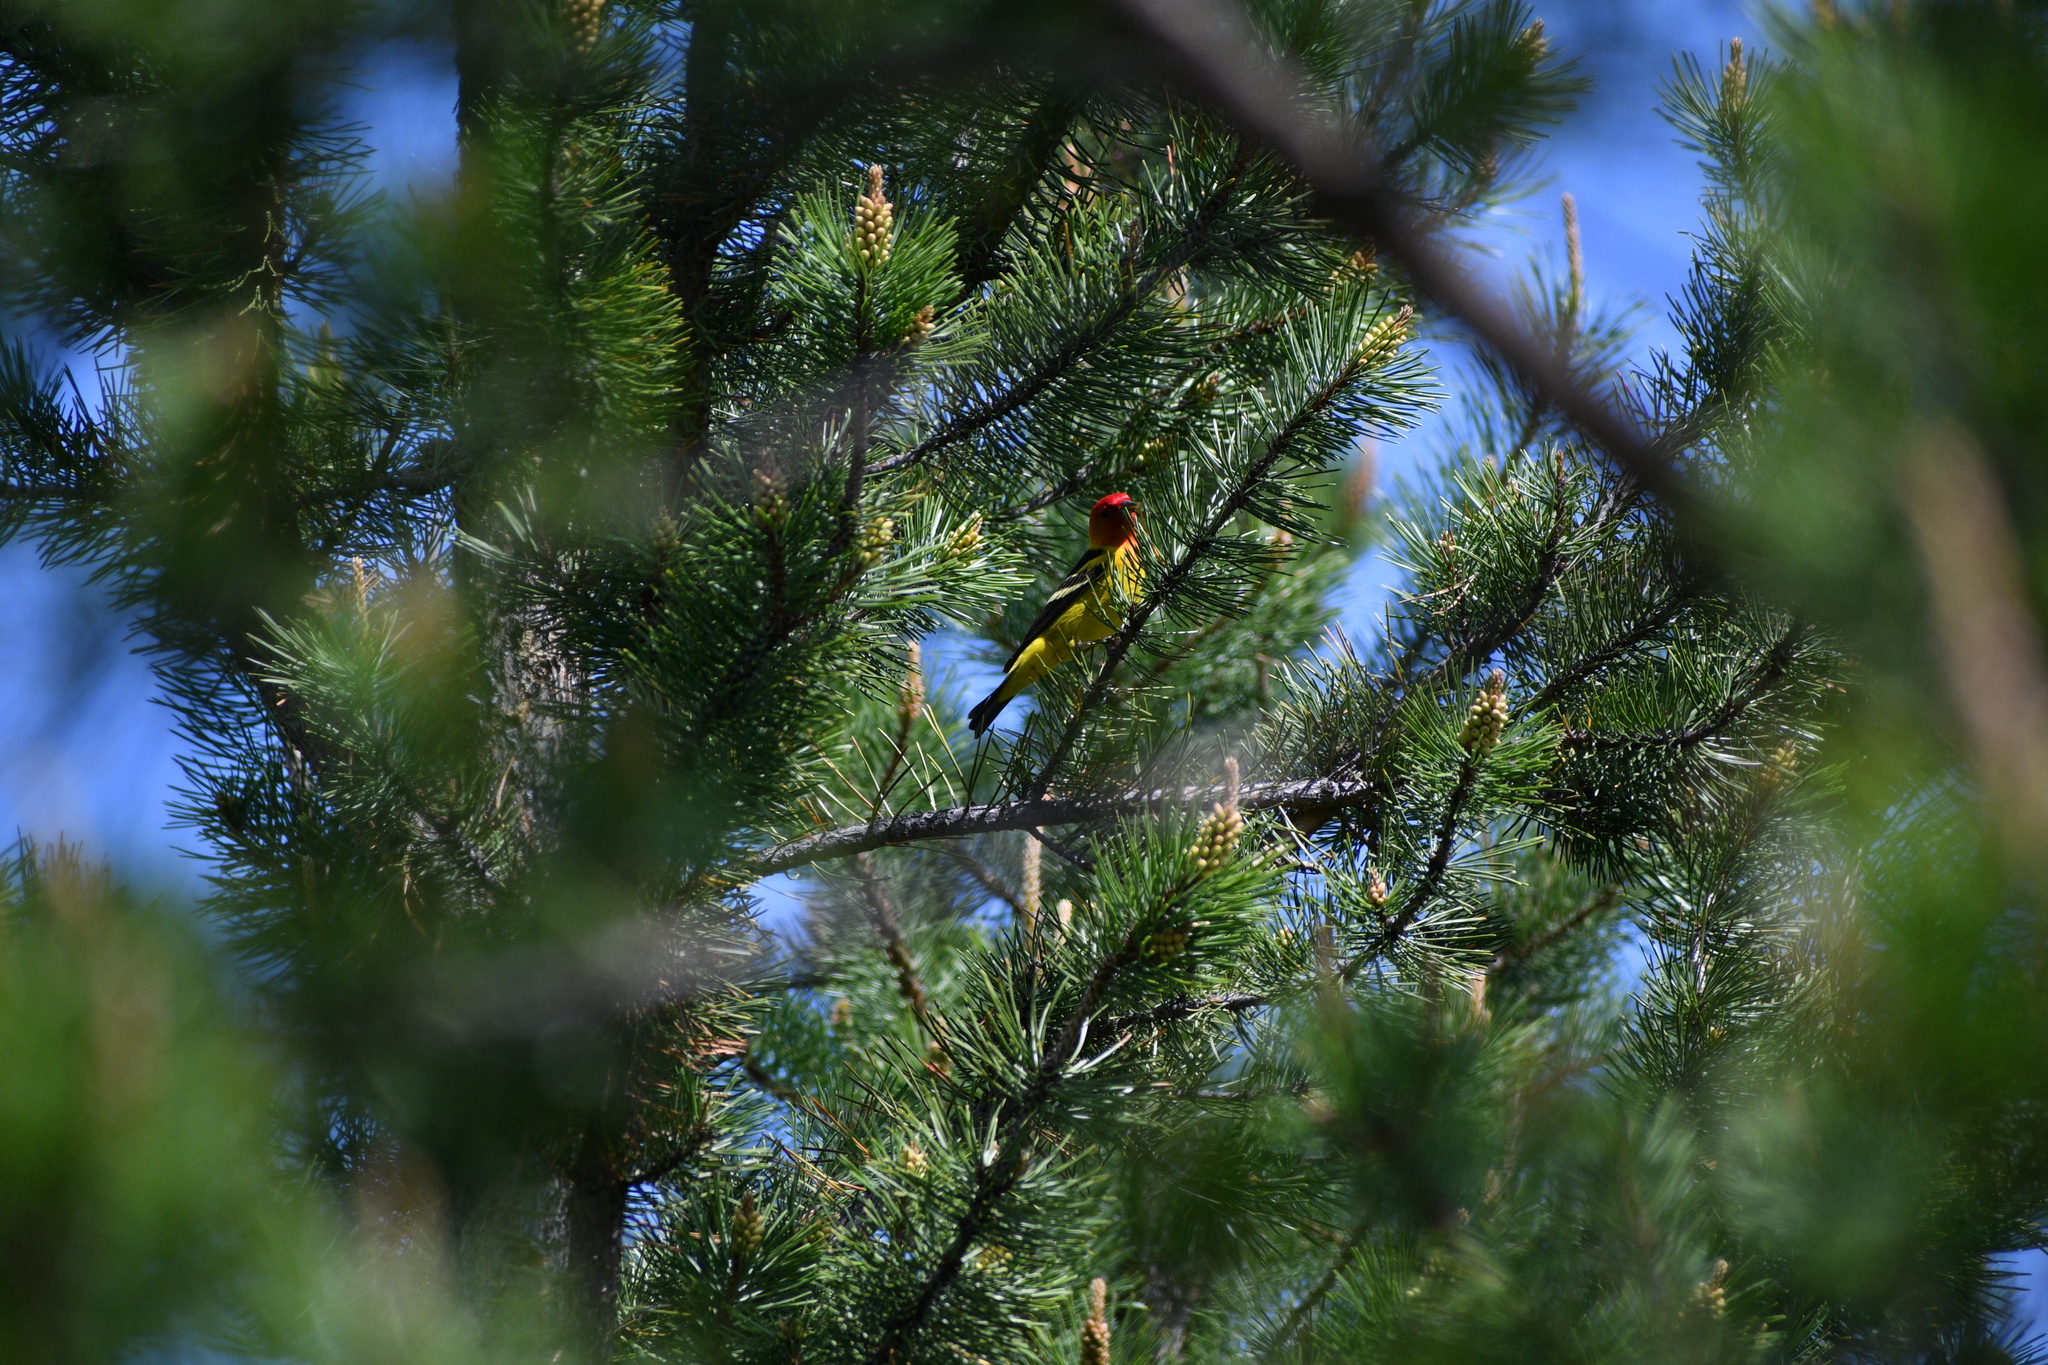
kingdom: Animalia
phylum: Chordata
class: Aves
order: Passeriformes
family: Cardinalidae
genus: Piranga
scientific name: Piranga ludoviciana
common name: Western tanager
